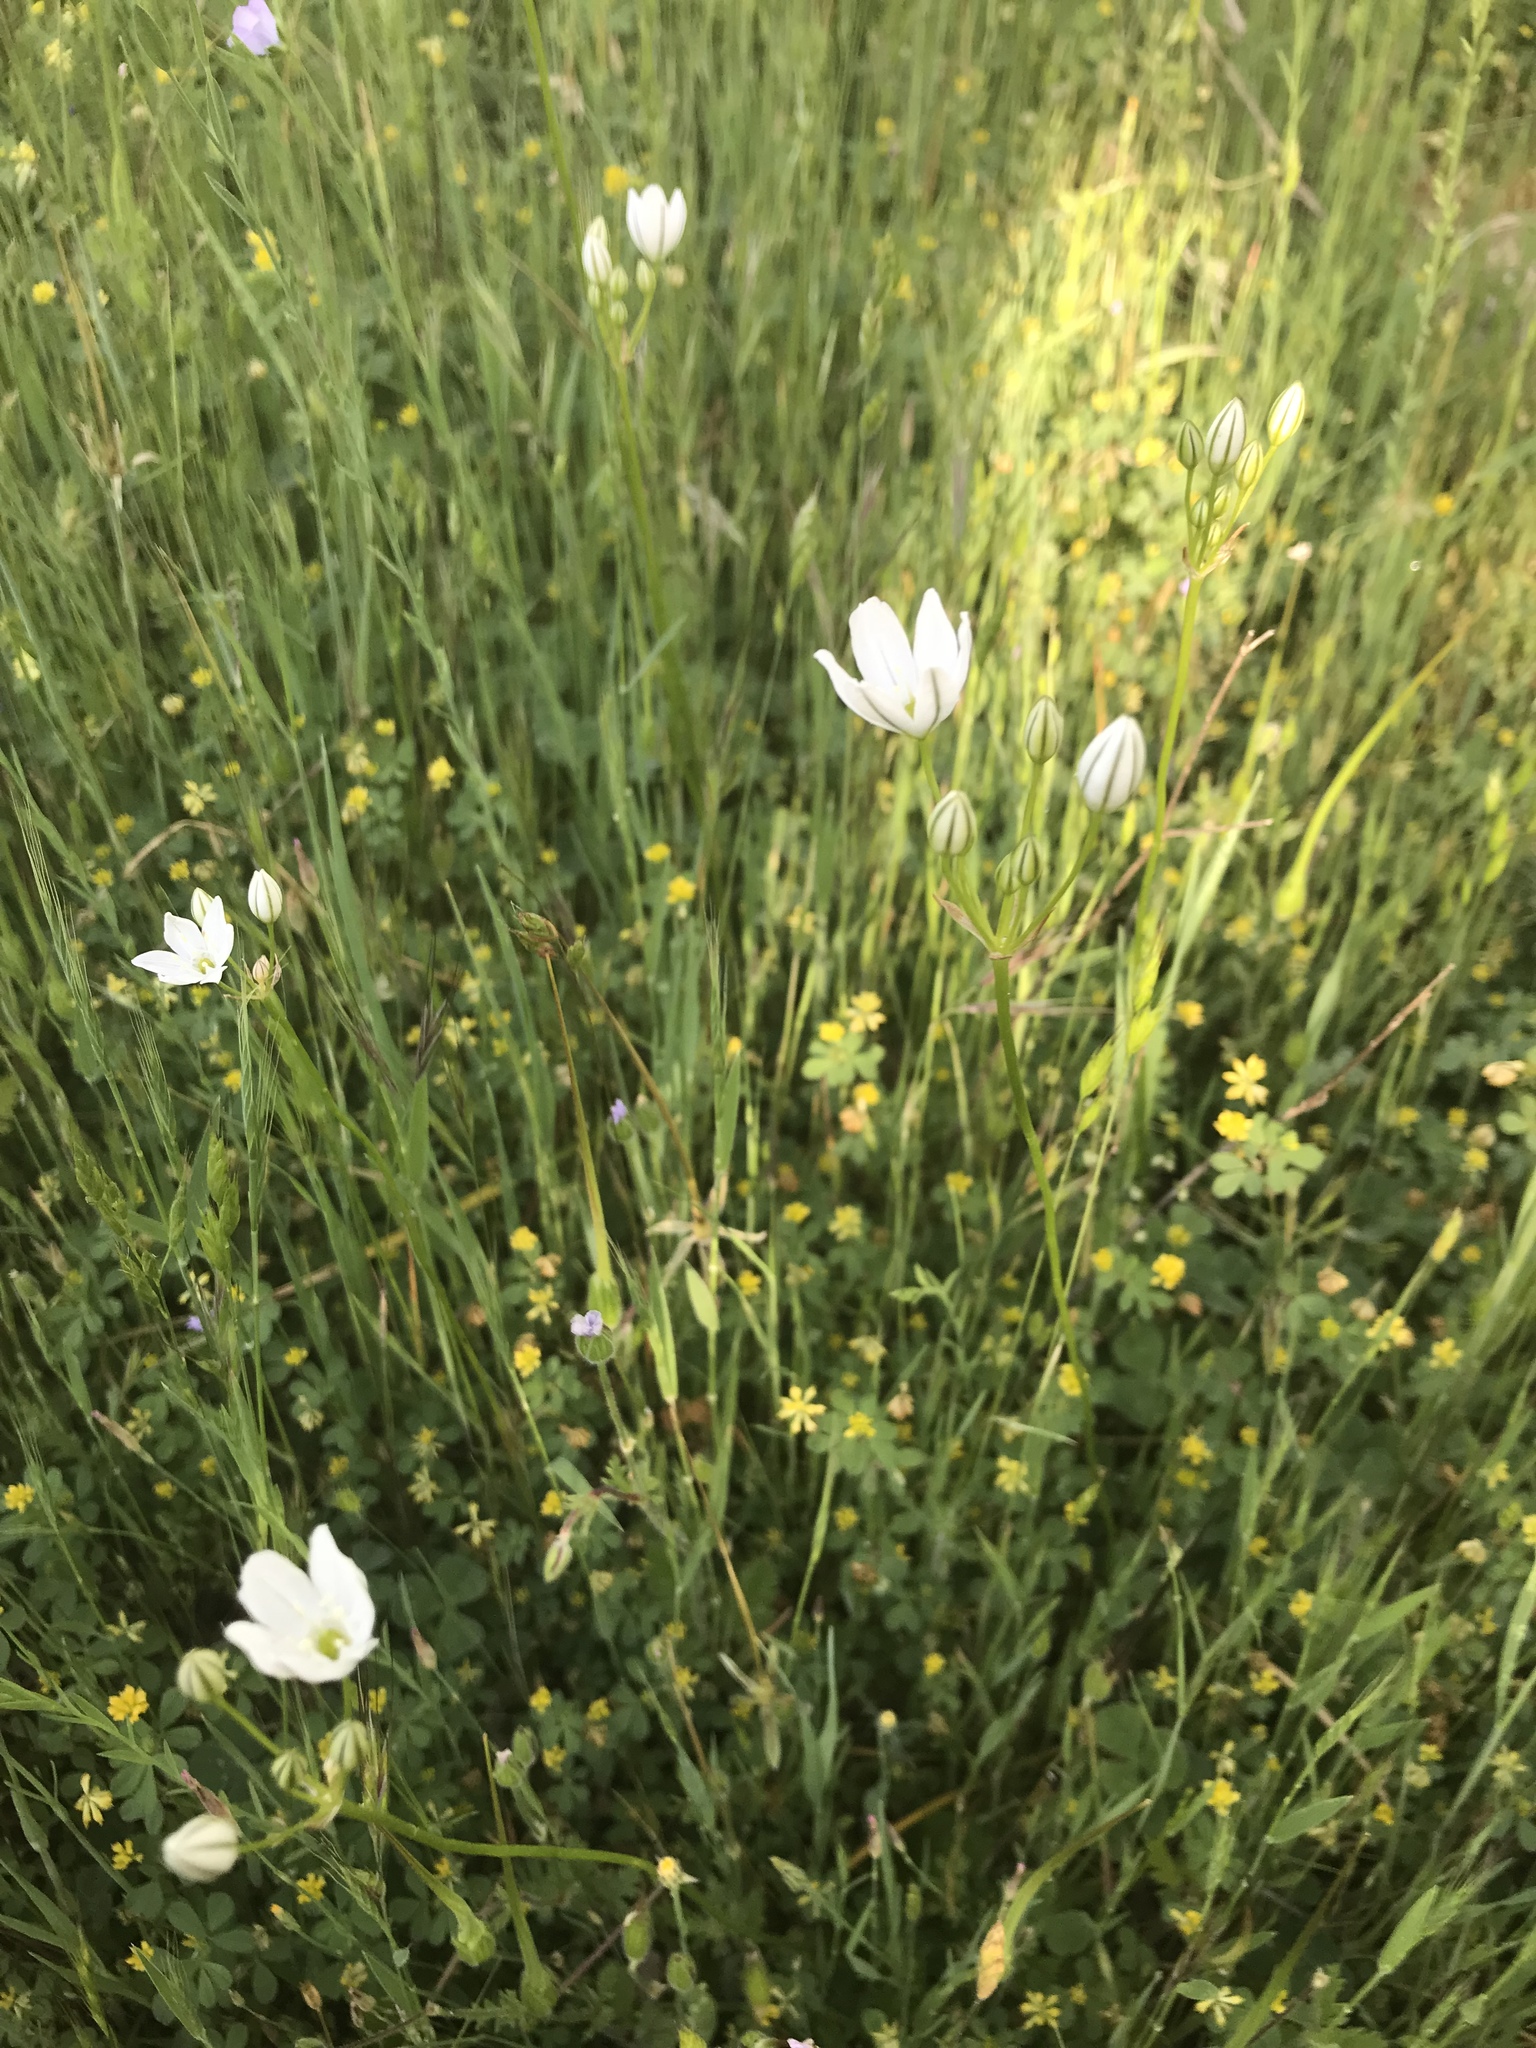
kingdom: Plantae
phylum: Tracheophyta
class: Liliopsida
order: Asparagales
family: Asparagaceae
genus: Triteleia
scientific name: Triteleia hyacinthina
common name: White brodiaea
